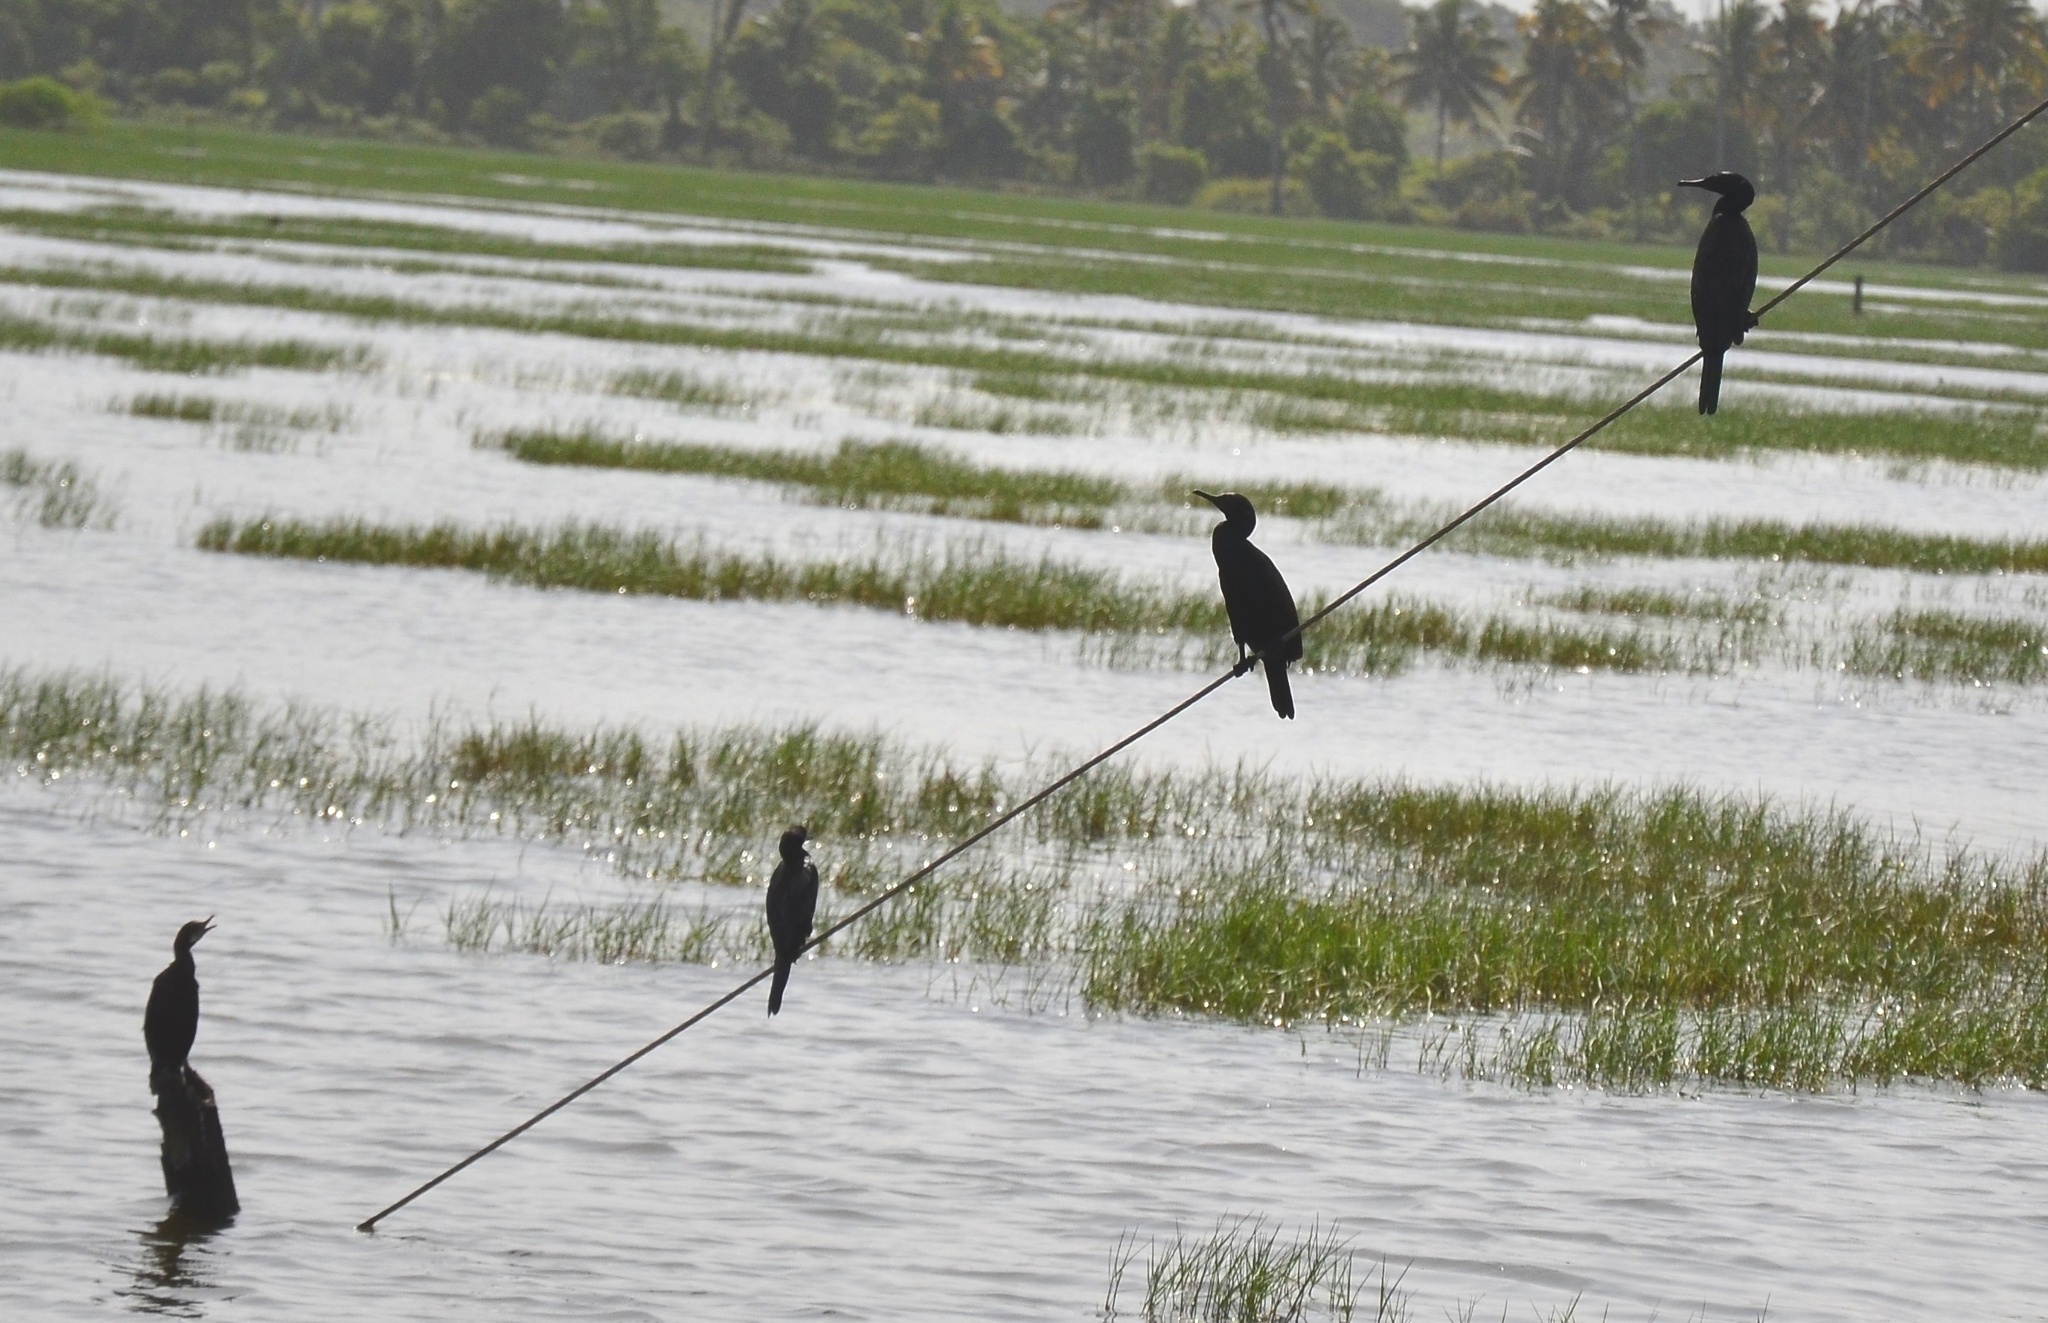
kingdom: Animalia
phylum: Chordata
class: Aves
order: Suliformes
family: Phalacrocoracidae
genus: Microcarbo
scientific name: Microcarbo niger
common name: Little cormorant
